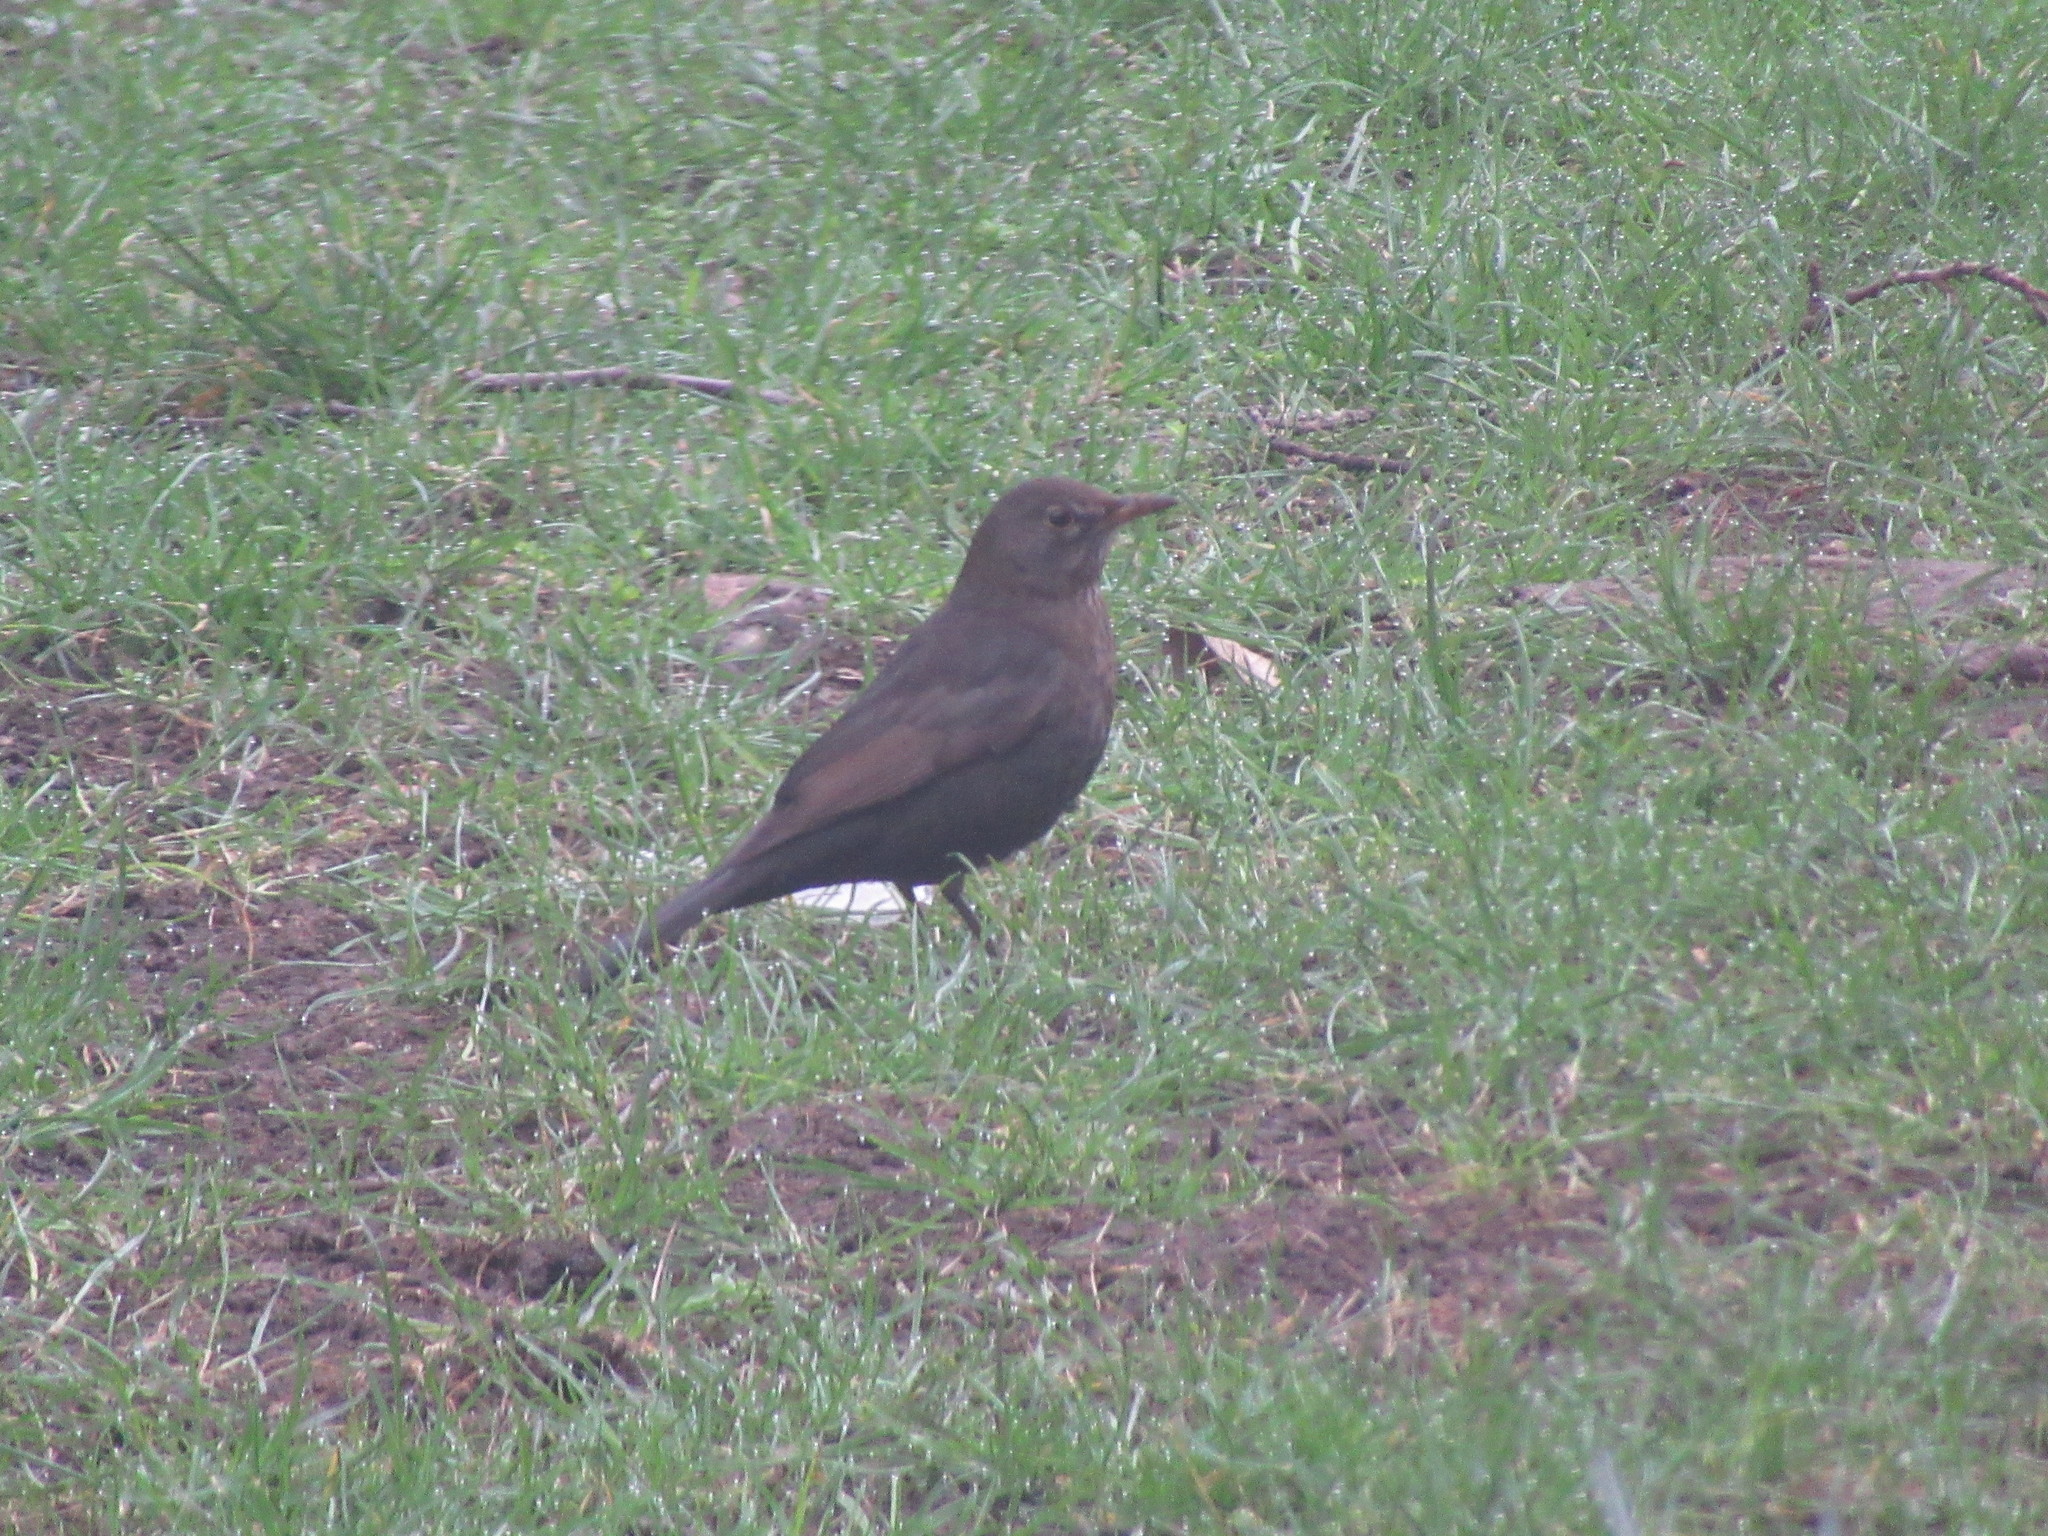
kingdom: Animalia
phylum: Chordata
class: Aves
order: Passeriformes
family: Turdidae
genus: Turdus
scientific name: Turdus merula
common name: Common blackbird
